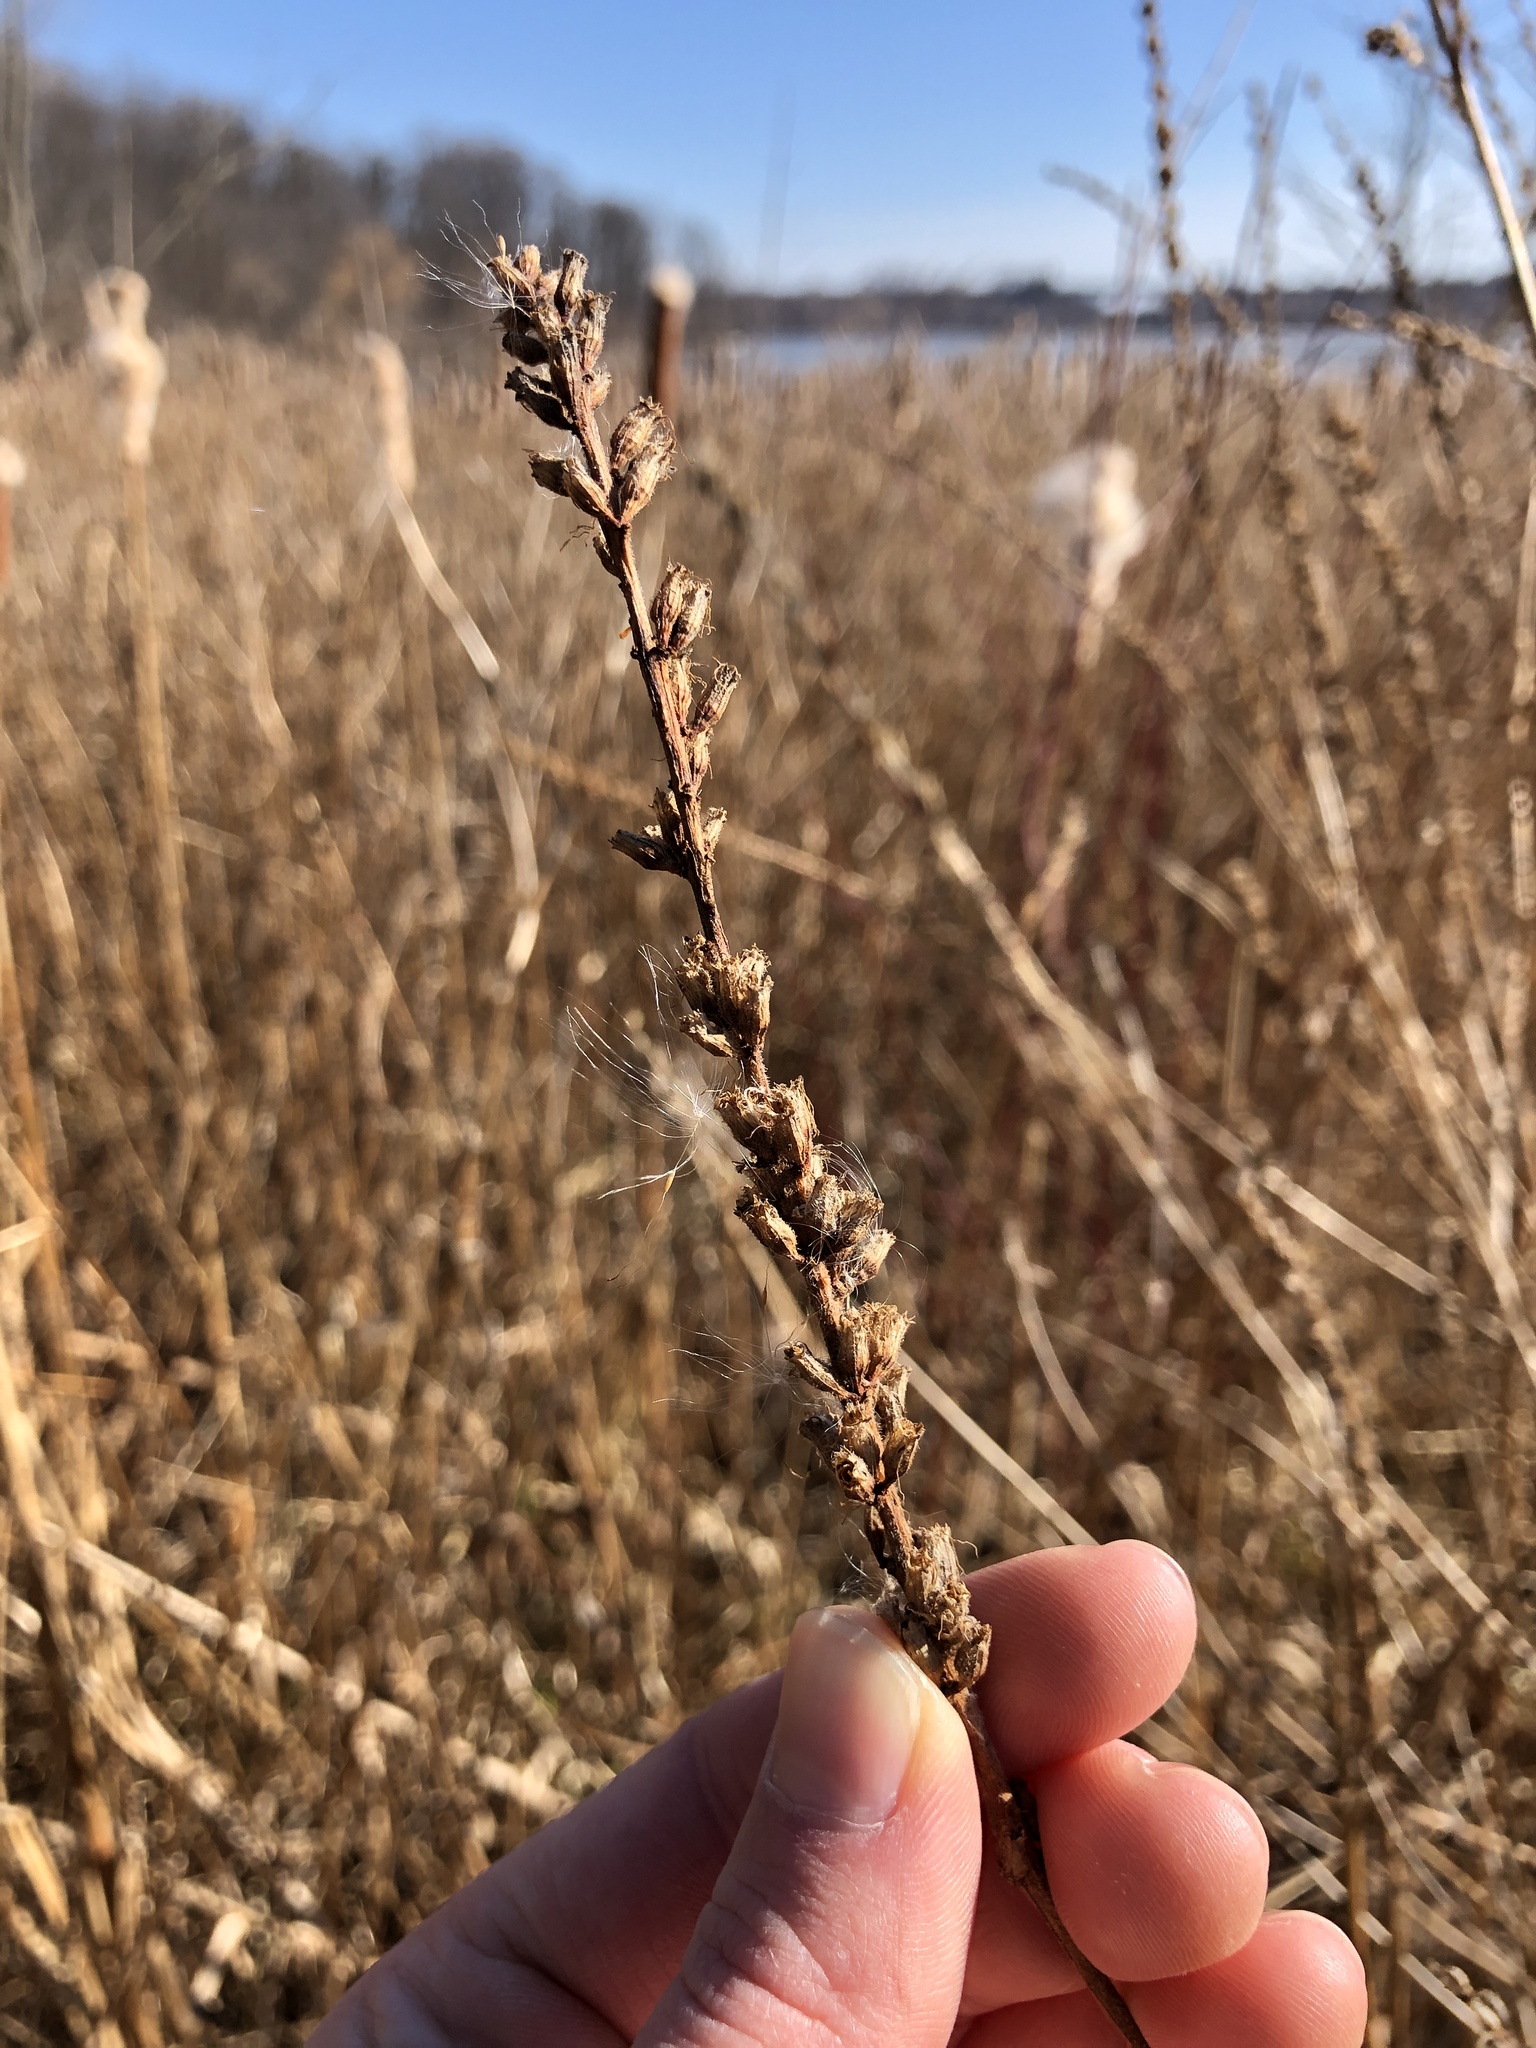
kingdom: Plantae
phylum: Tracheophyta
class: Magnoliopsida
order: Myrtales
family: Lythraceae
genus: Lythrum
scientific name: Lythrum salicaria
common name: Purple loosestrife
